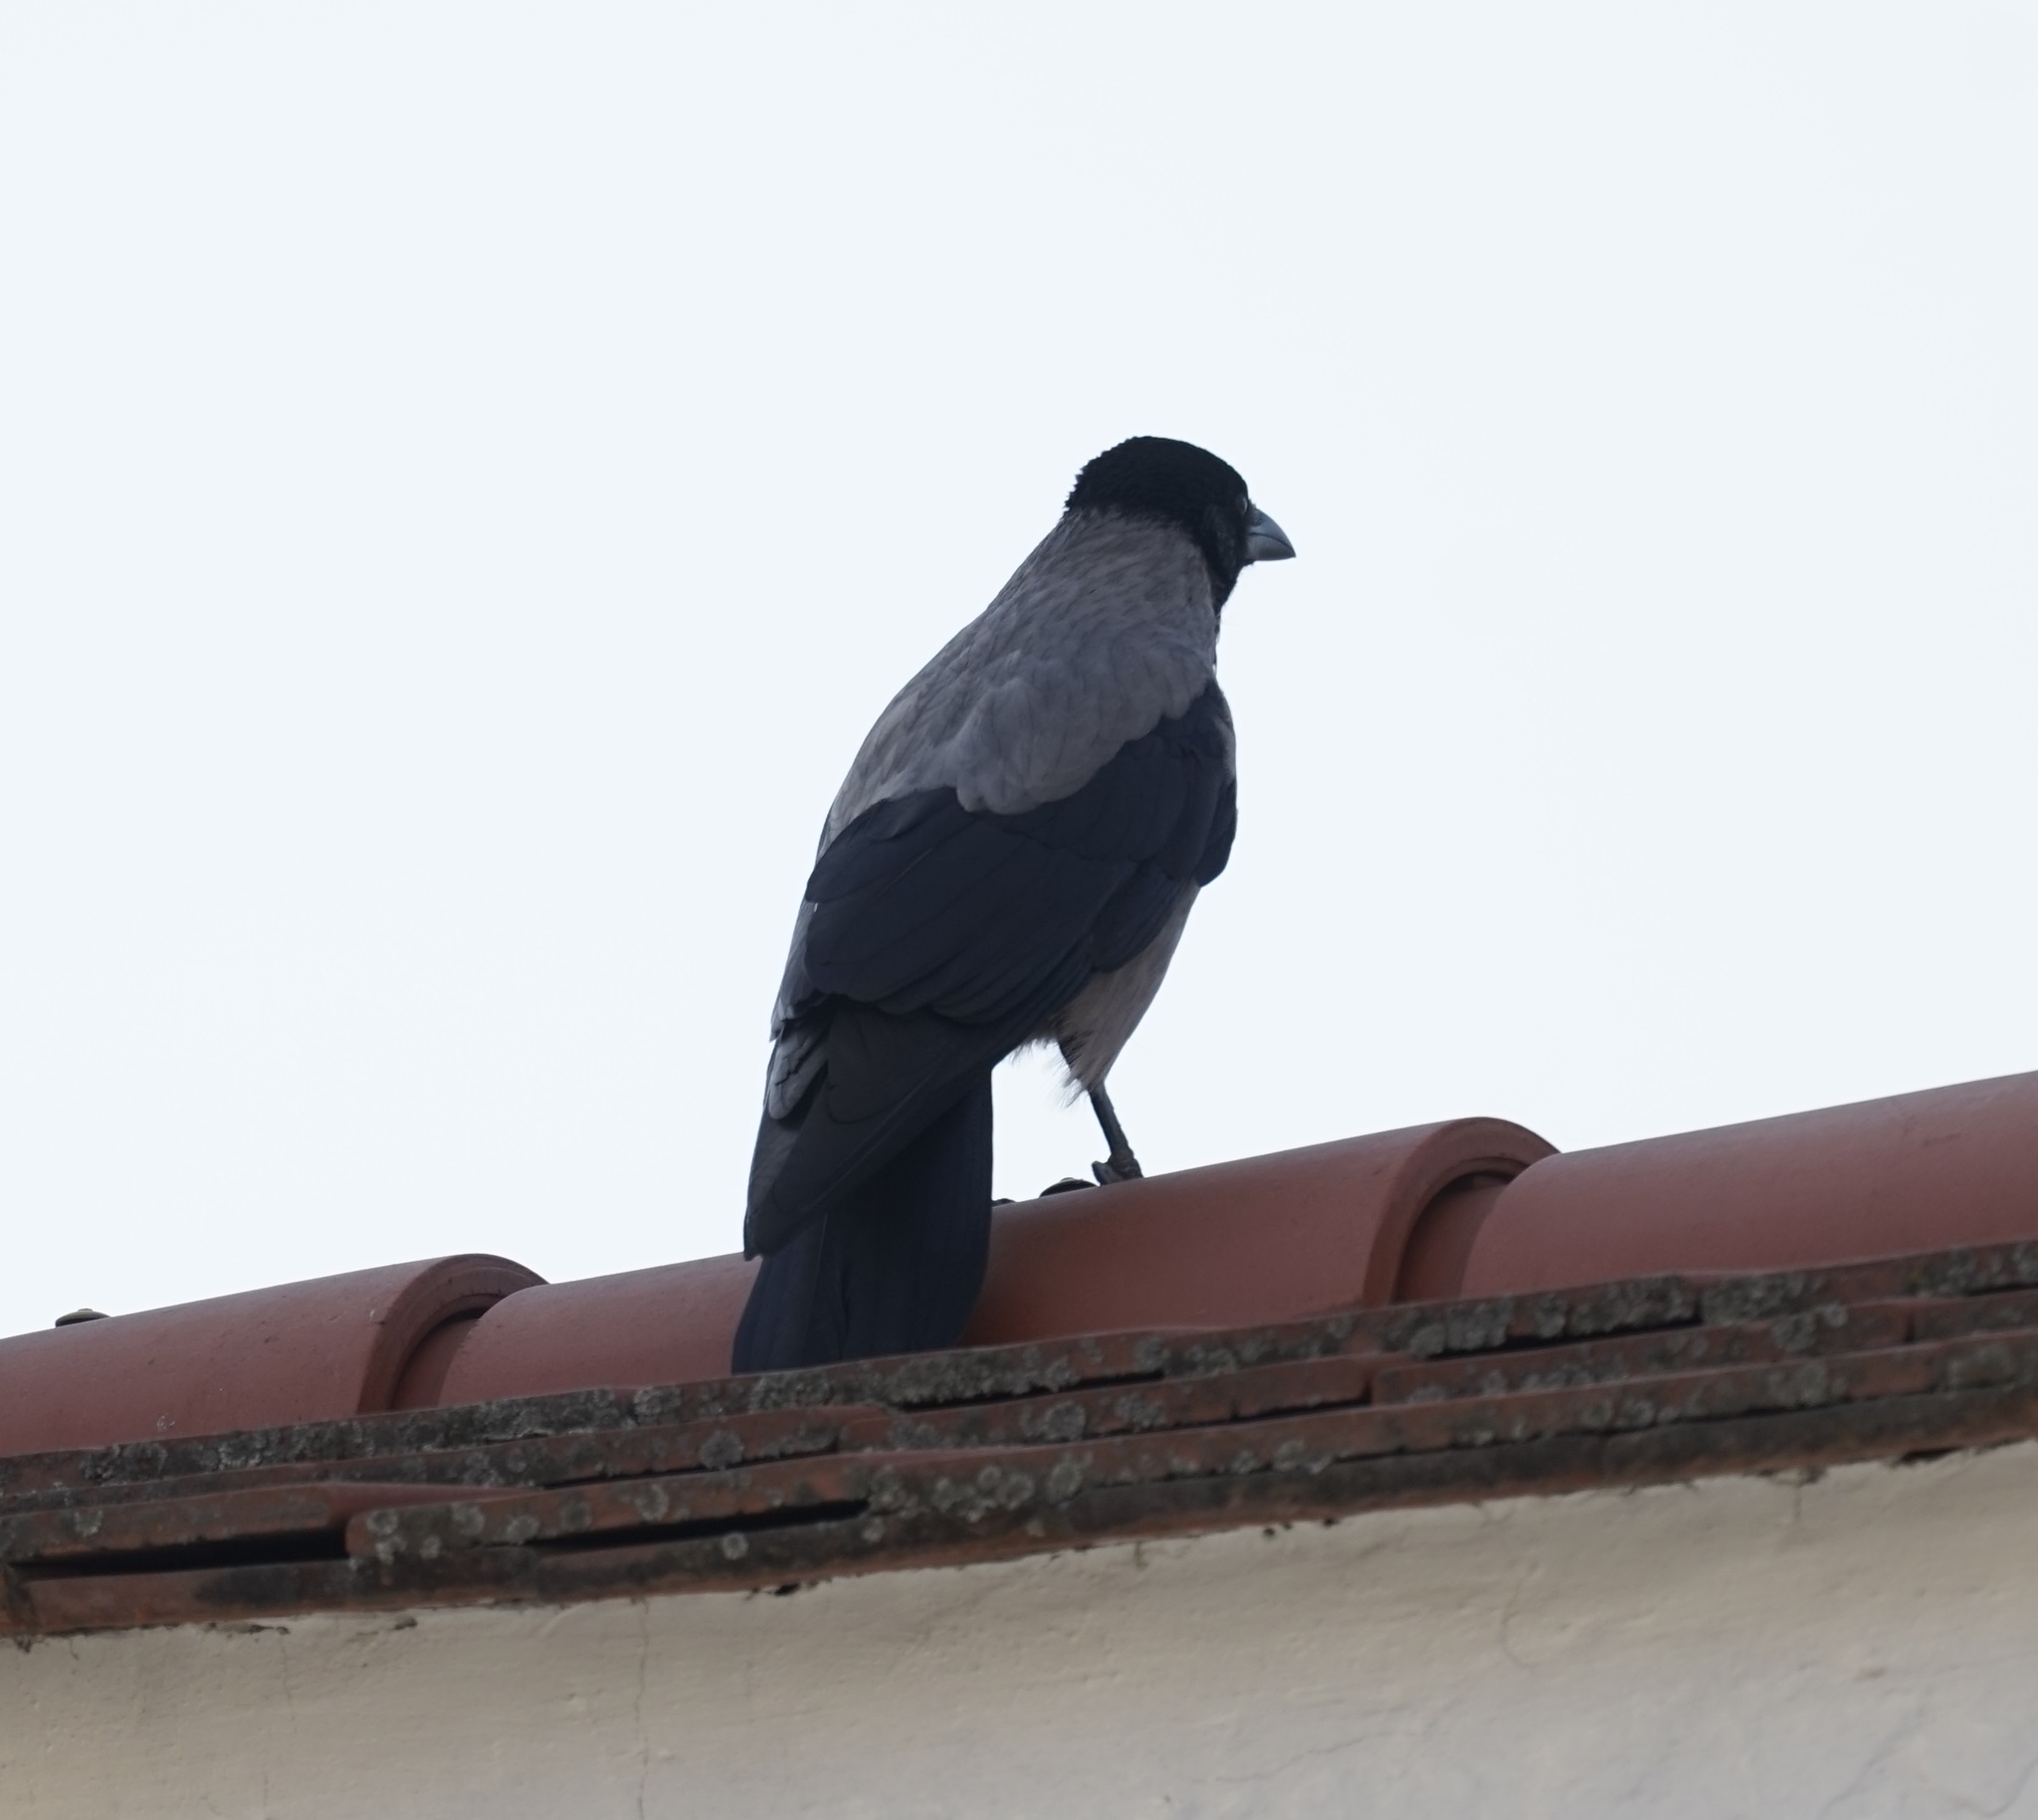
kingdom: Animalia
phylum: Chordata
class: Aves
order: Passeriformes
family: Corvidae
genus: Corvus
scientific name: Corvus cornix
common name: Hooded crow
